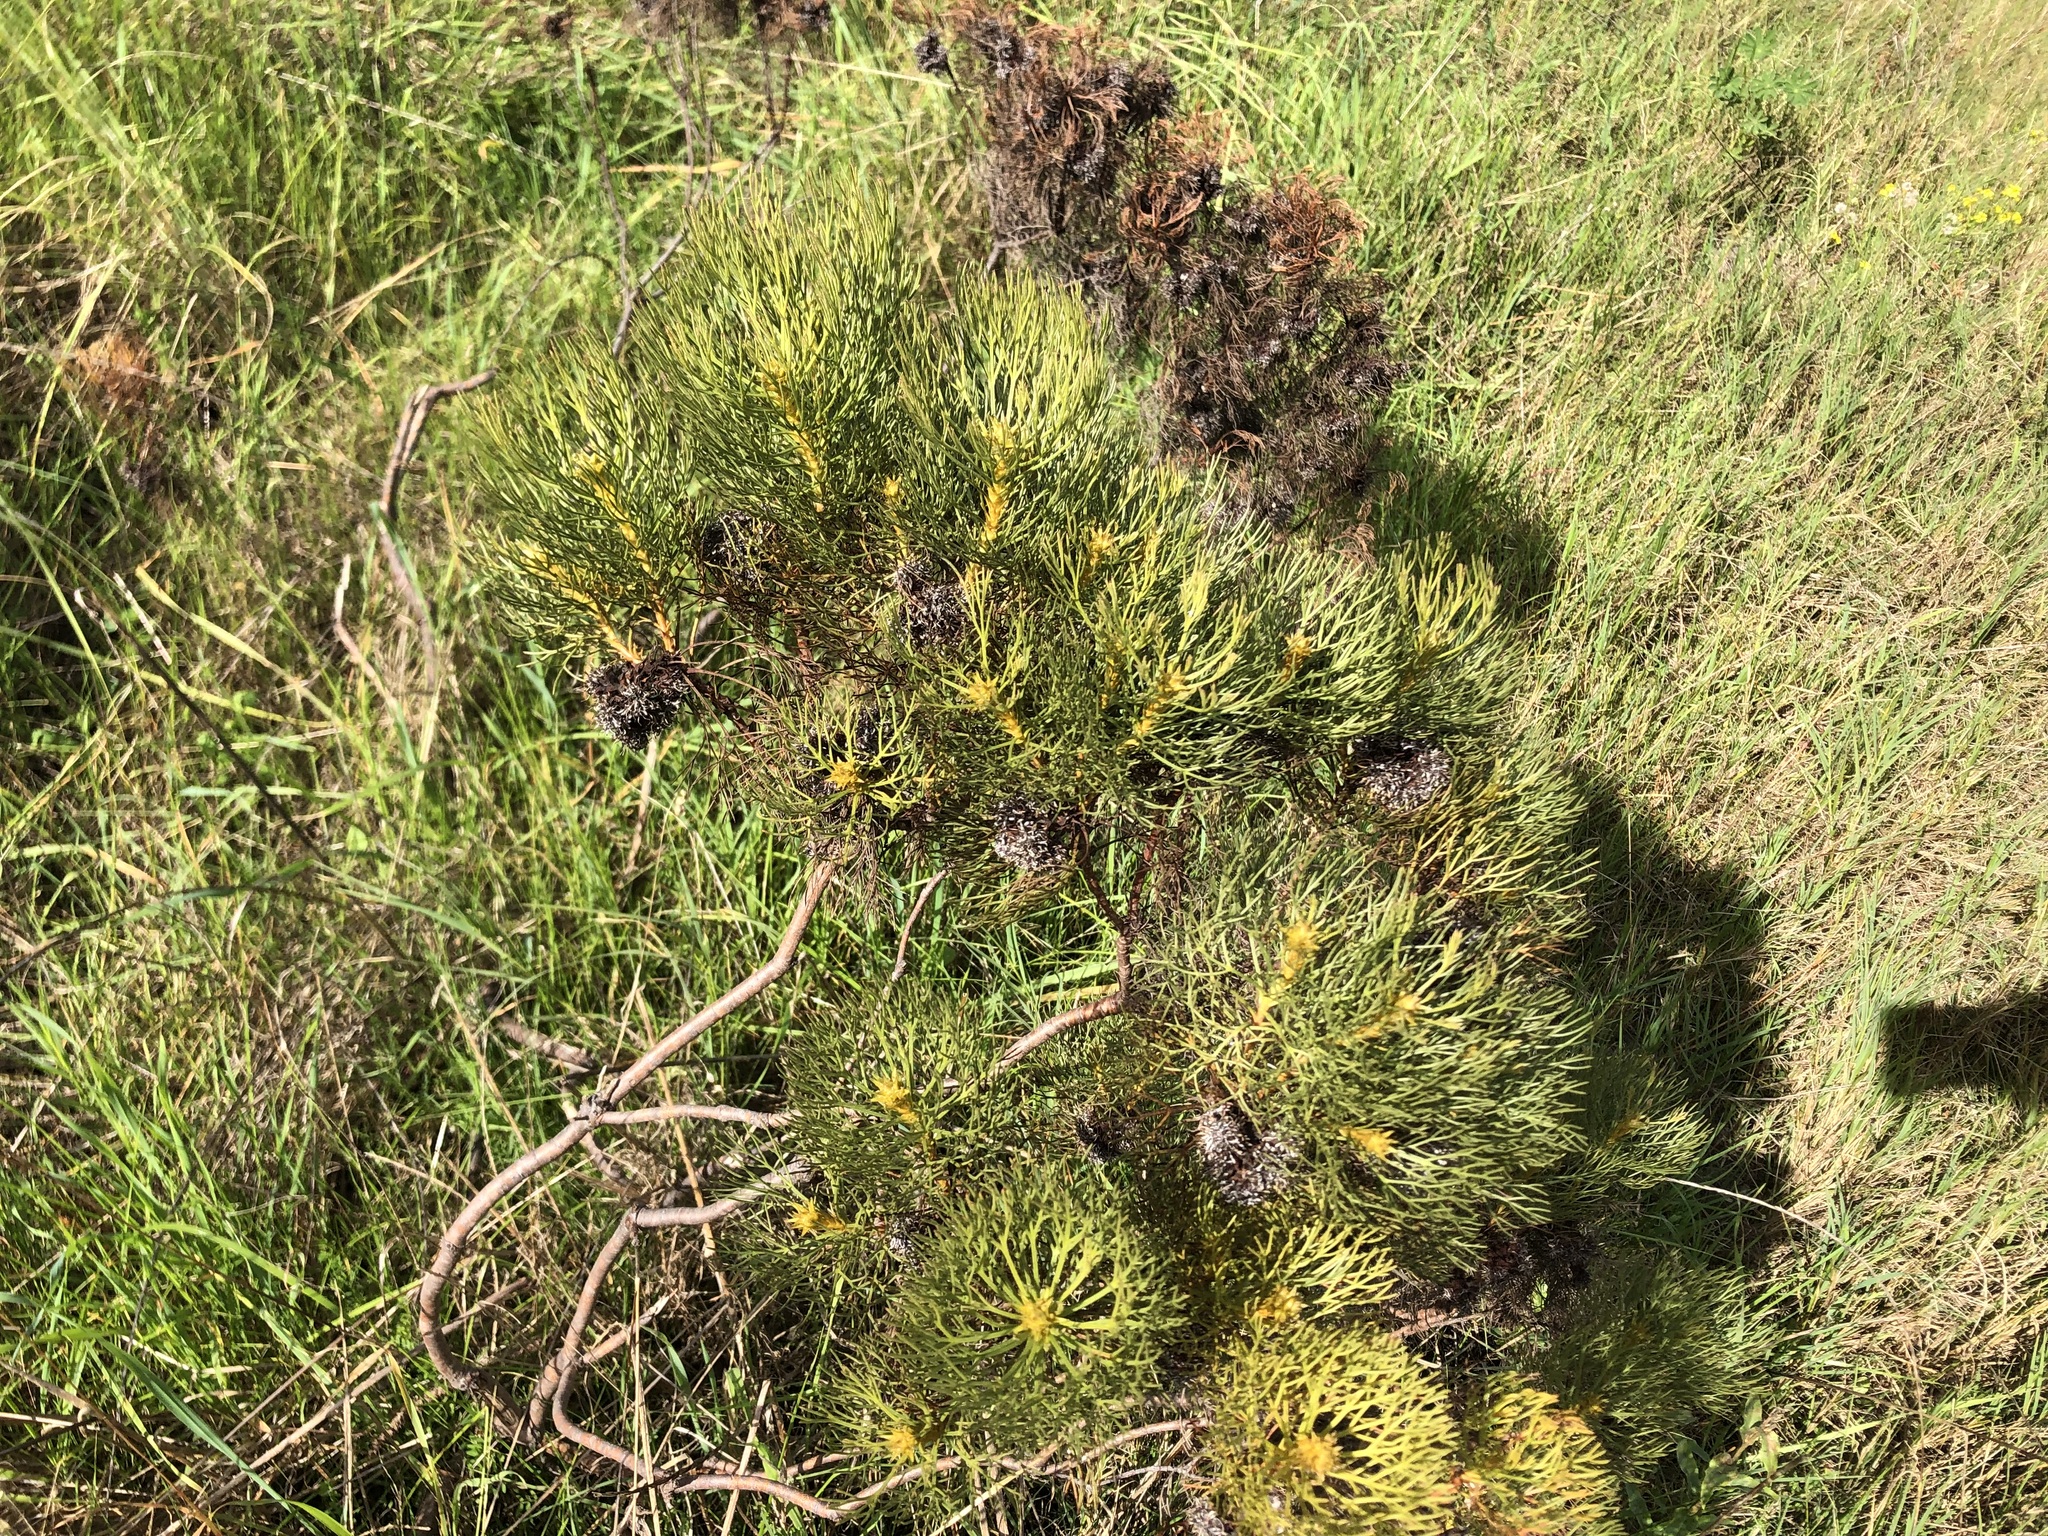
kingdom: Plantae
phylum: Tracheophyta
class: Magnoliopsida
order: Proteales
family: Proteaceae
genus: Serruria
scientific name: Serruria glomerata
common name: Cluster spiderhead
